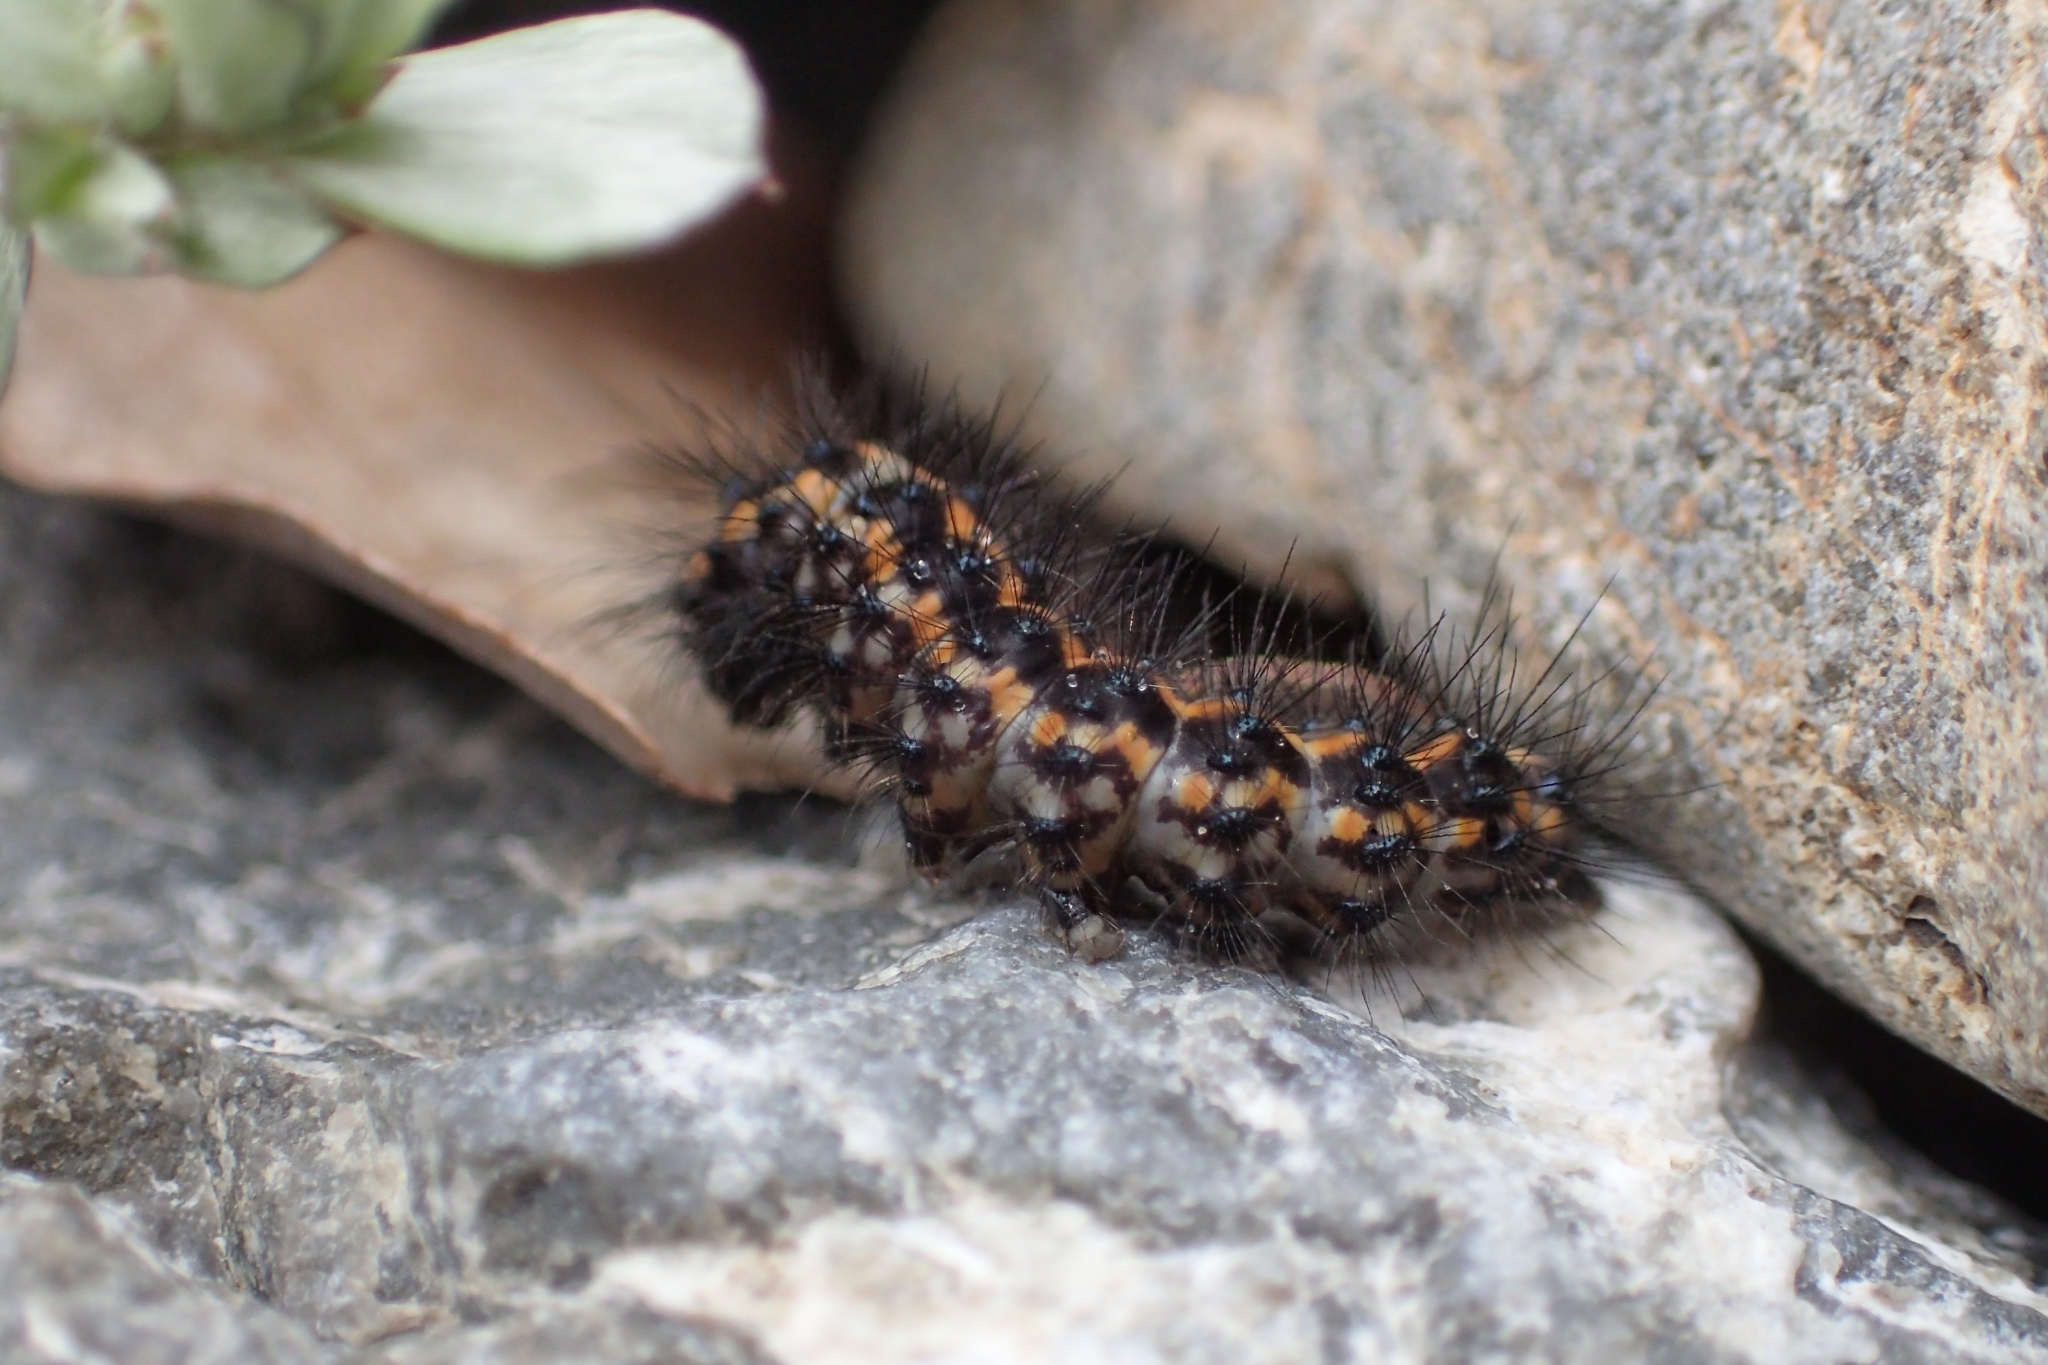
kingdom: Animalia
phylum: Arthropoda
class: Insecta
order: Lepidoptera
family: Erebidae
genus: Nyctemera
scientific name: Nyctemera annulatum
